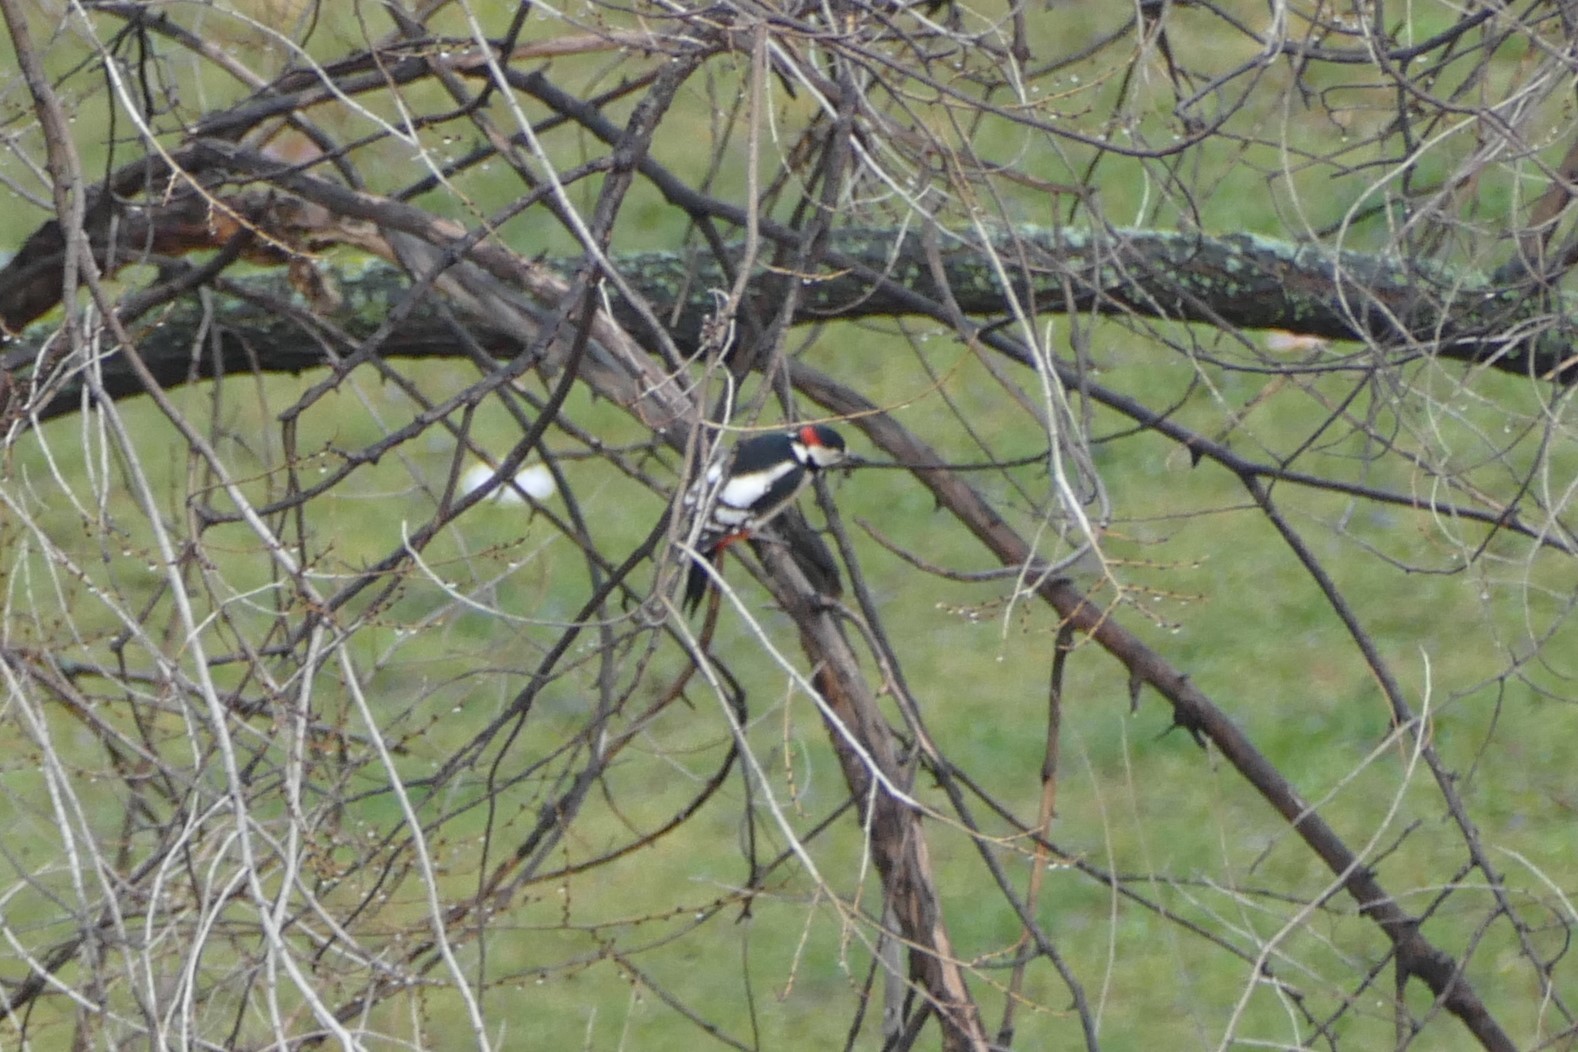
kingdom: Animalia
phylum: Chordata
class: Aves
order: Piciformes
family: Picidae
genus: Dendrocopos
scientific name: Dendrocopos major
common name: Great spotted woodpecker
